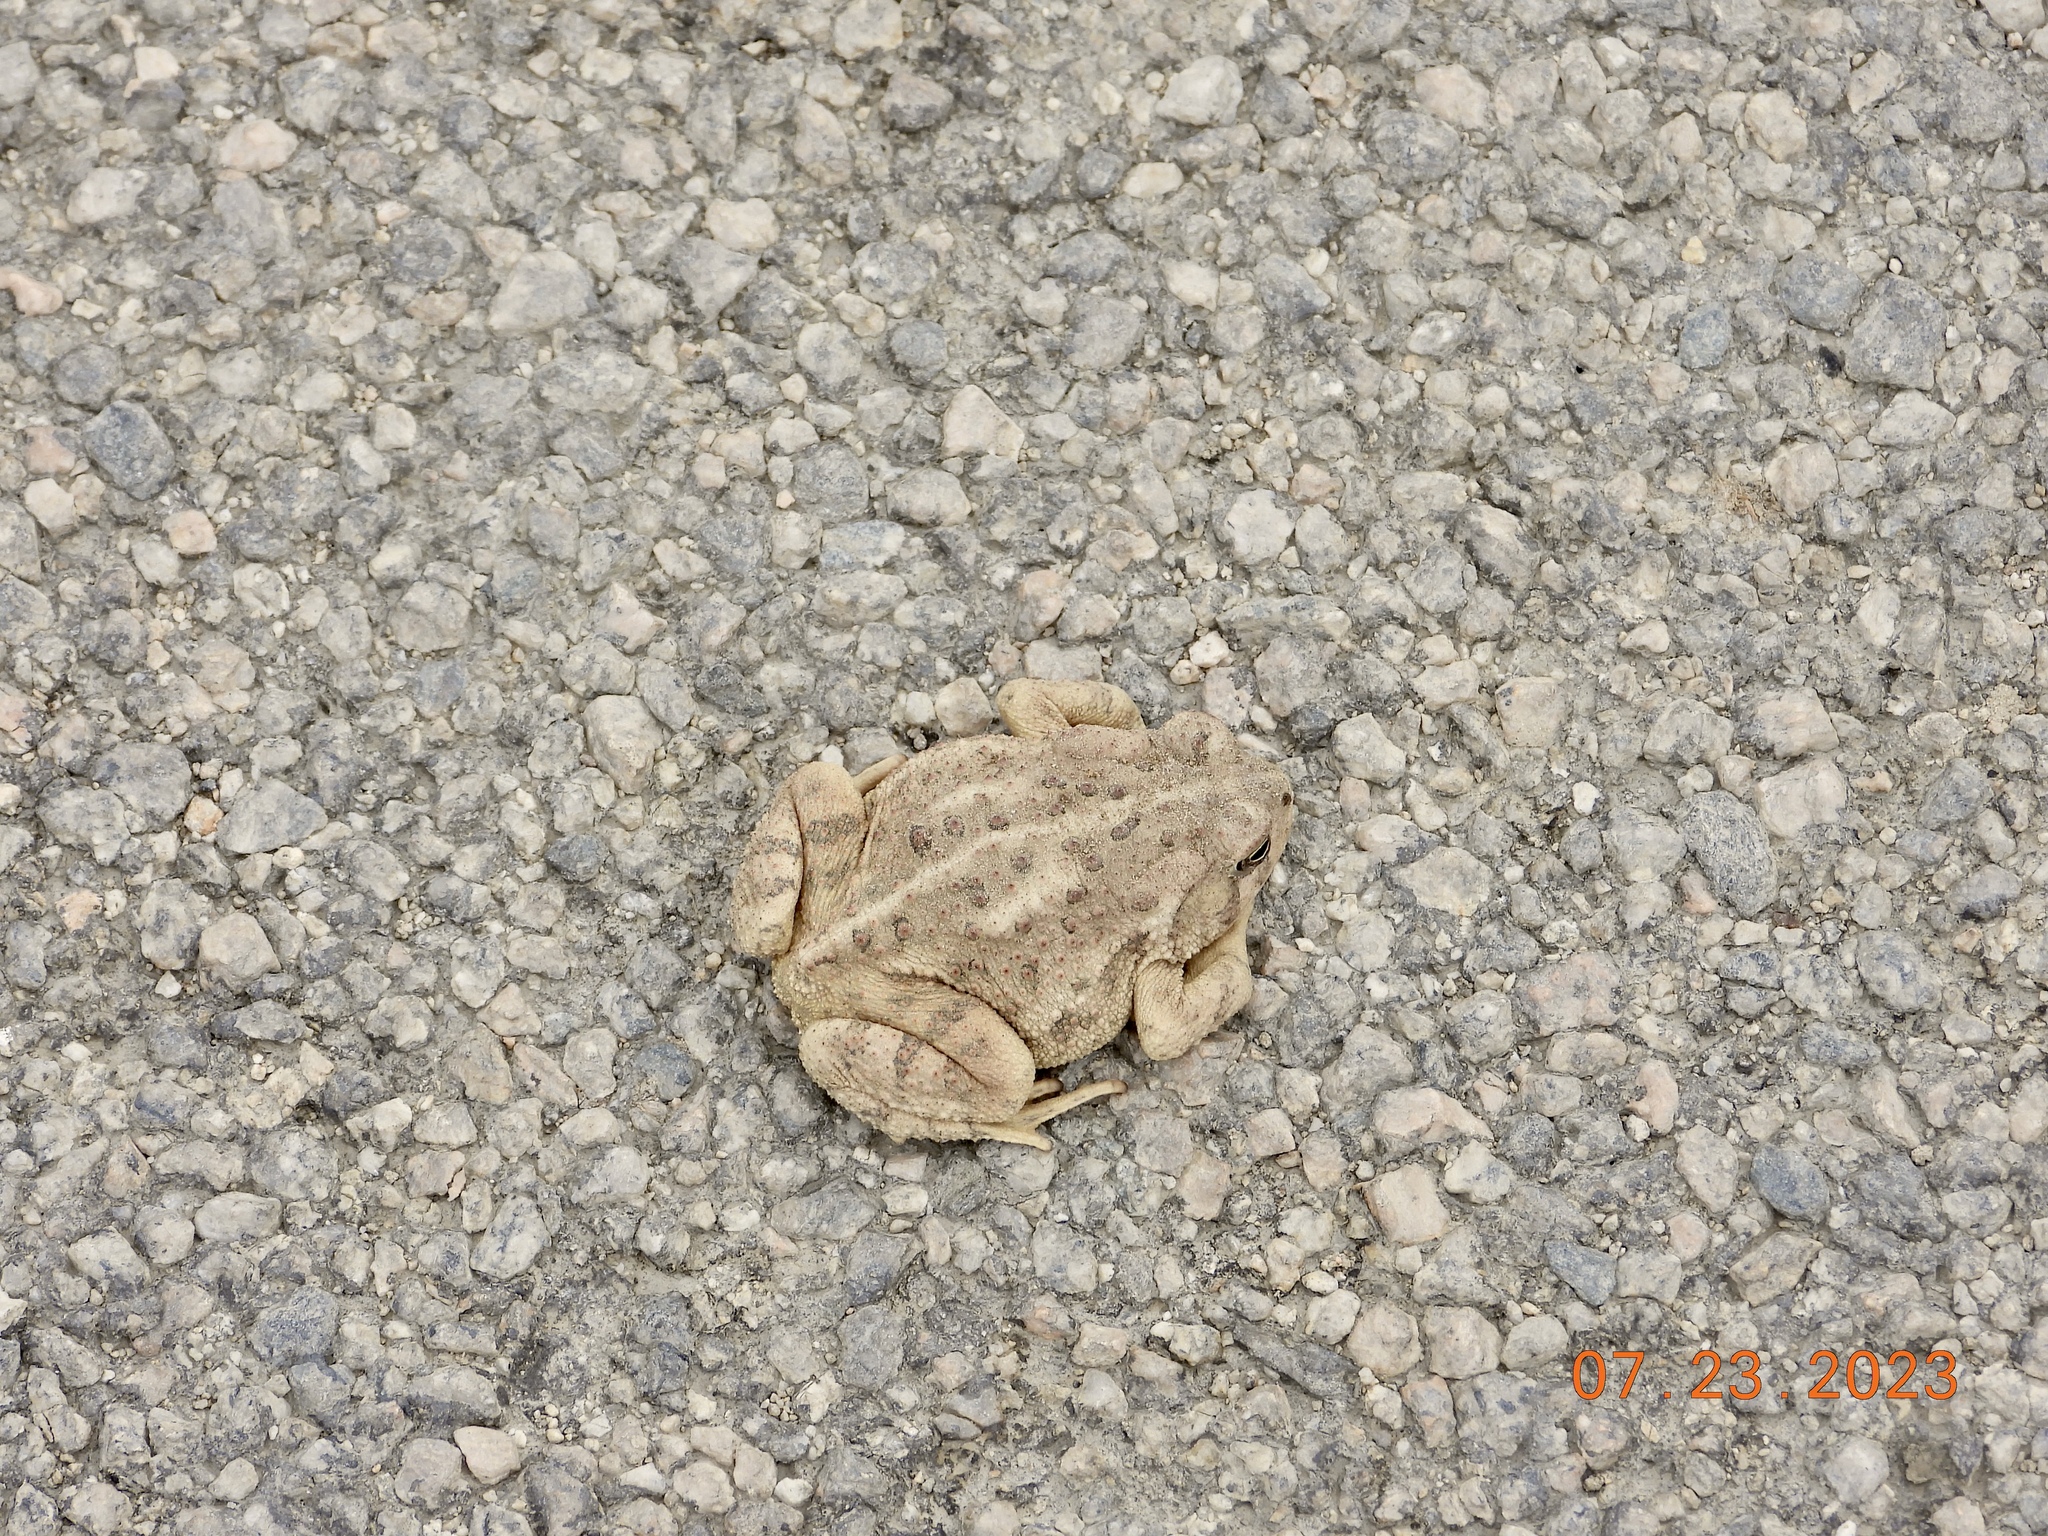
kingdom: Animalia
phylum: Chordata
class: Amphibia
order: Anura
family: Bufonidae
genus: Anaxyrus
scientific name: Anaxyrus woodhousii
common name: Woodhouse's toad
